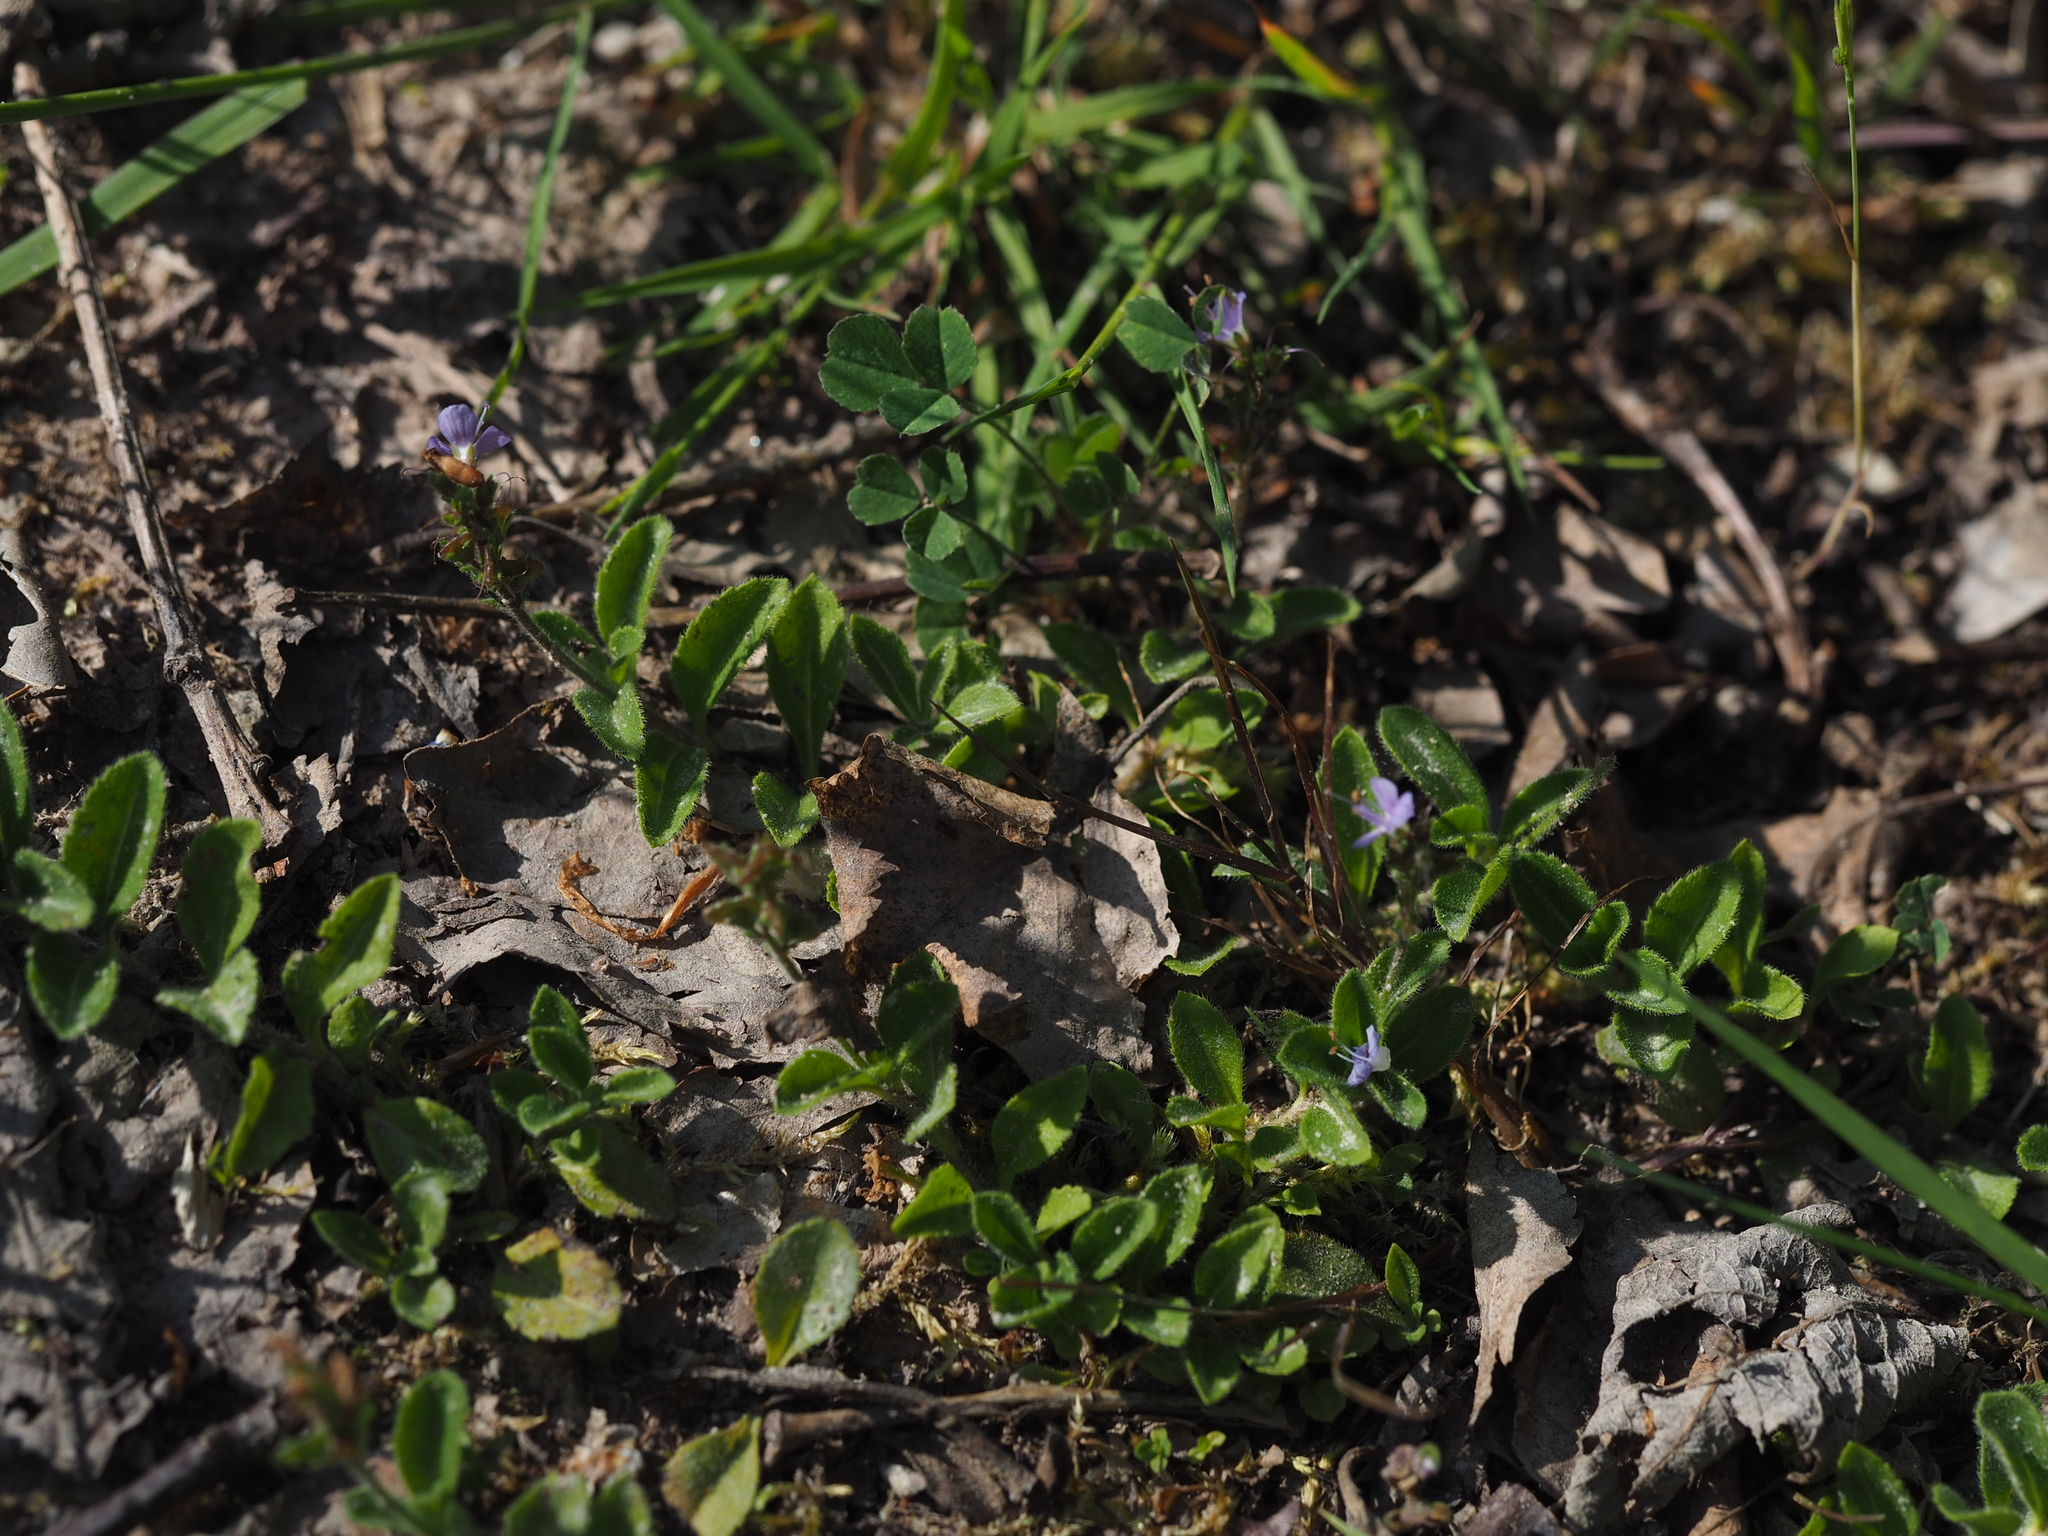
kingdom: Plantae
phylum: Tracheophyta
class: Magnoliopsida
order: Lamiales
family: Plantaginaceae
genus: Veronica
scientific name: Veronica officinalis
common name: Common speedwell
